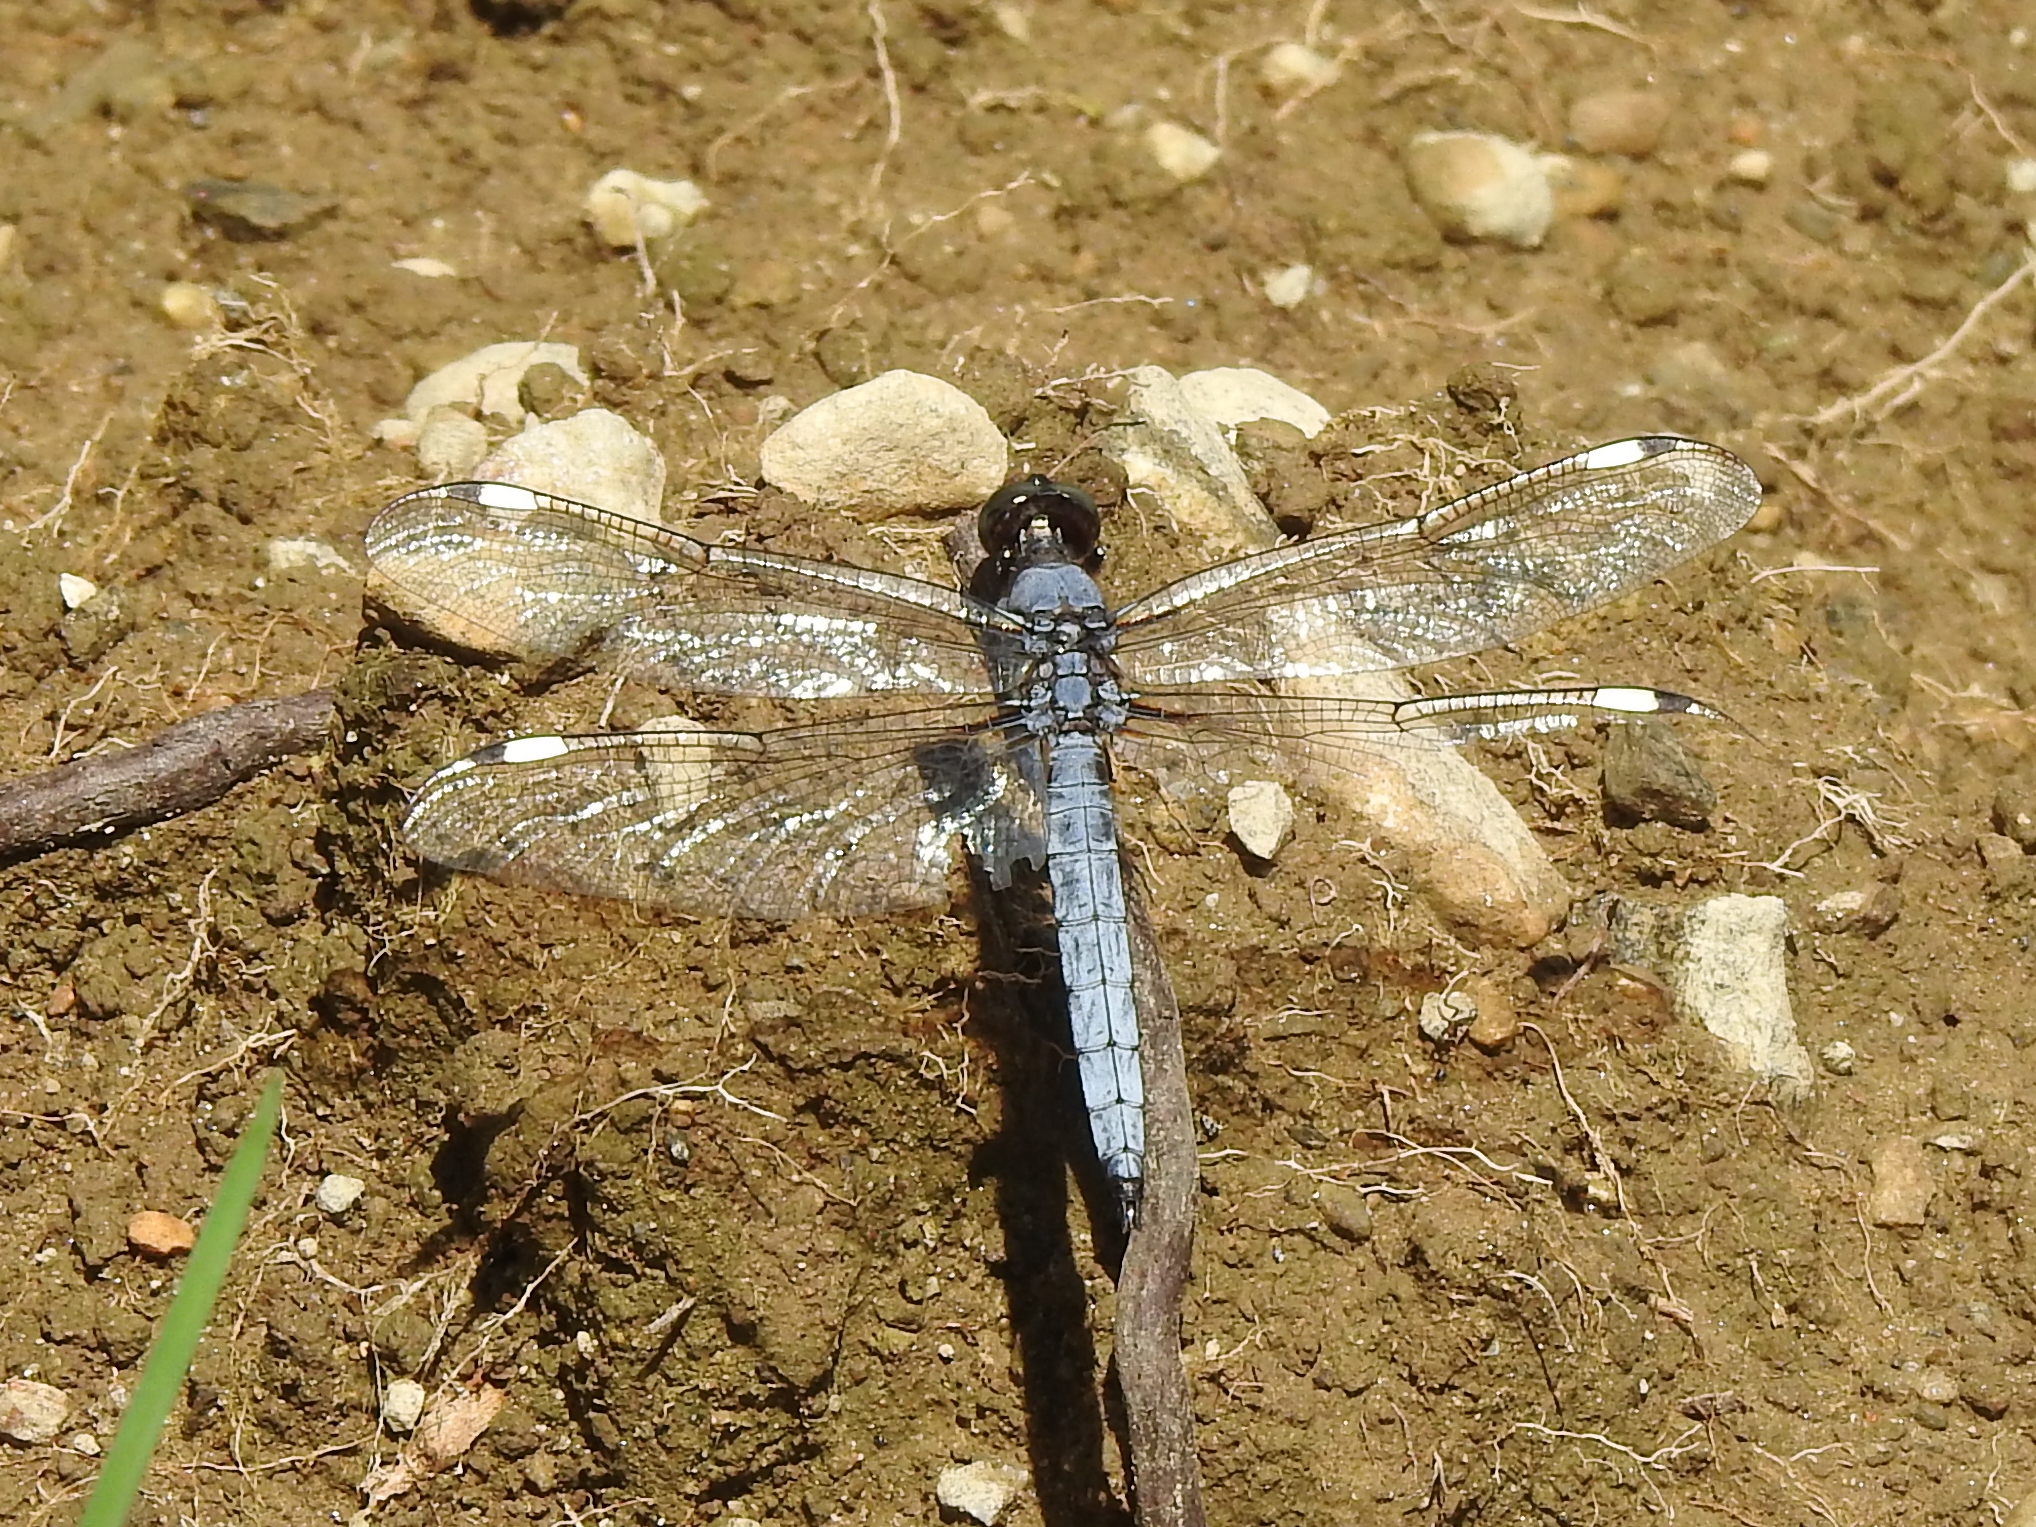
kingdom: Animalia
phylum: Arthropoda
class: Insecta
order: Odonata
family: Libellulidae
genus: Libellula
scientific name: Libellula cyanea
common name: Spangled skimmer
